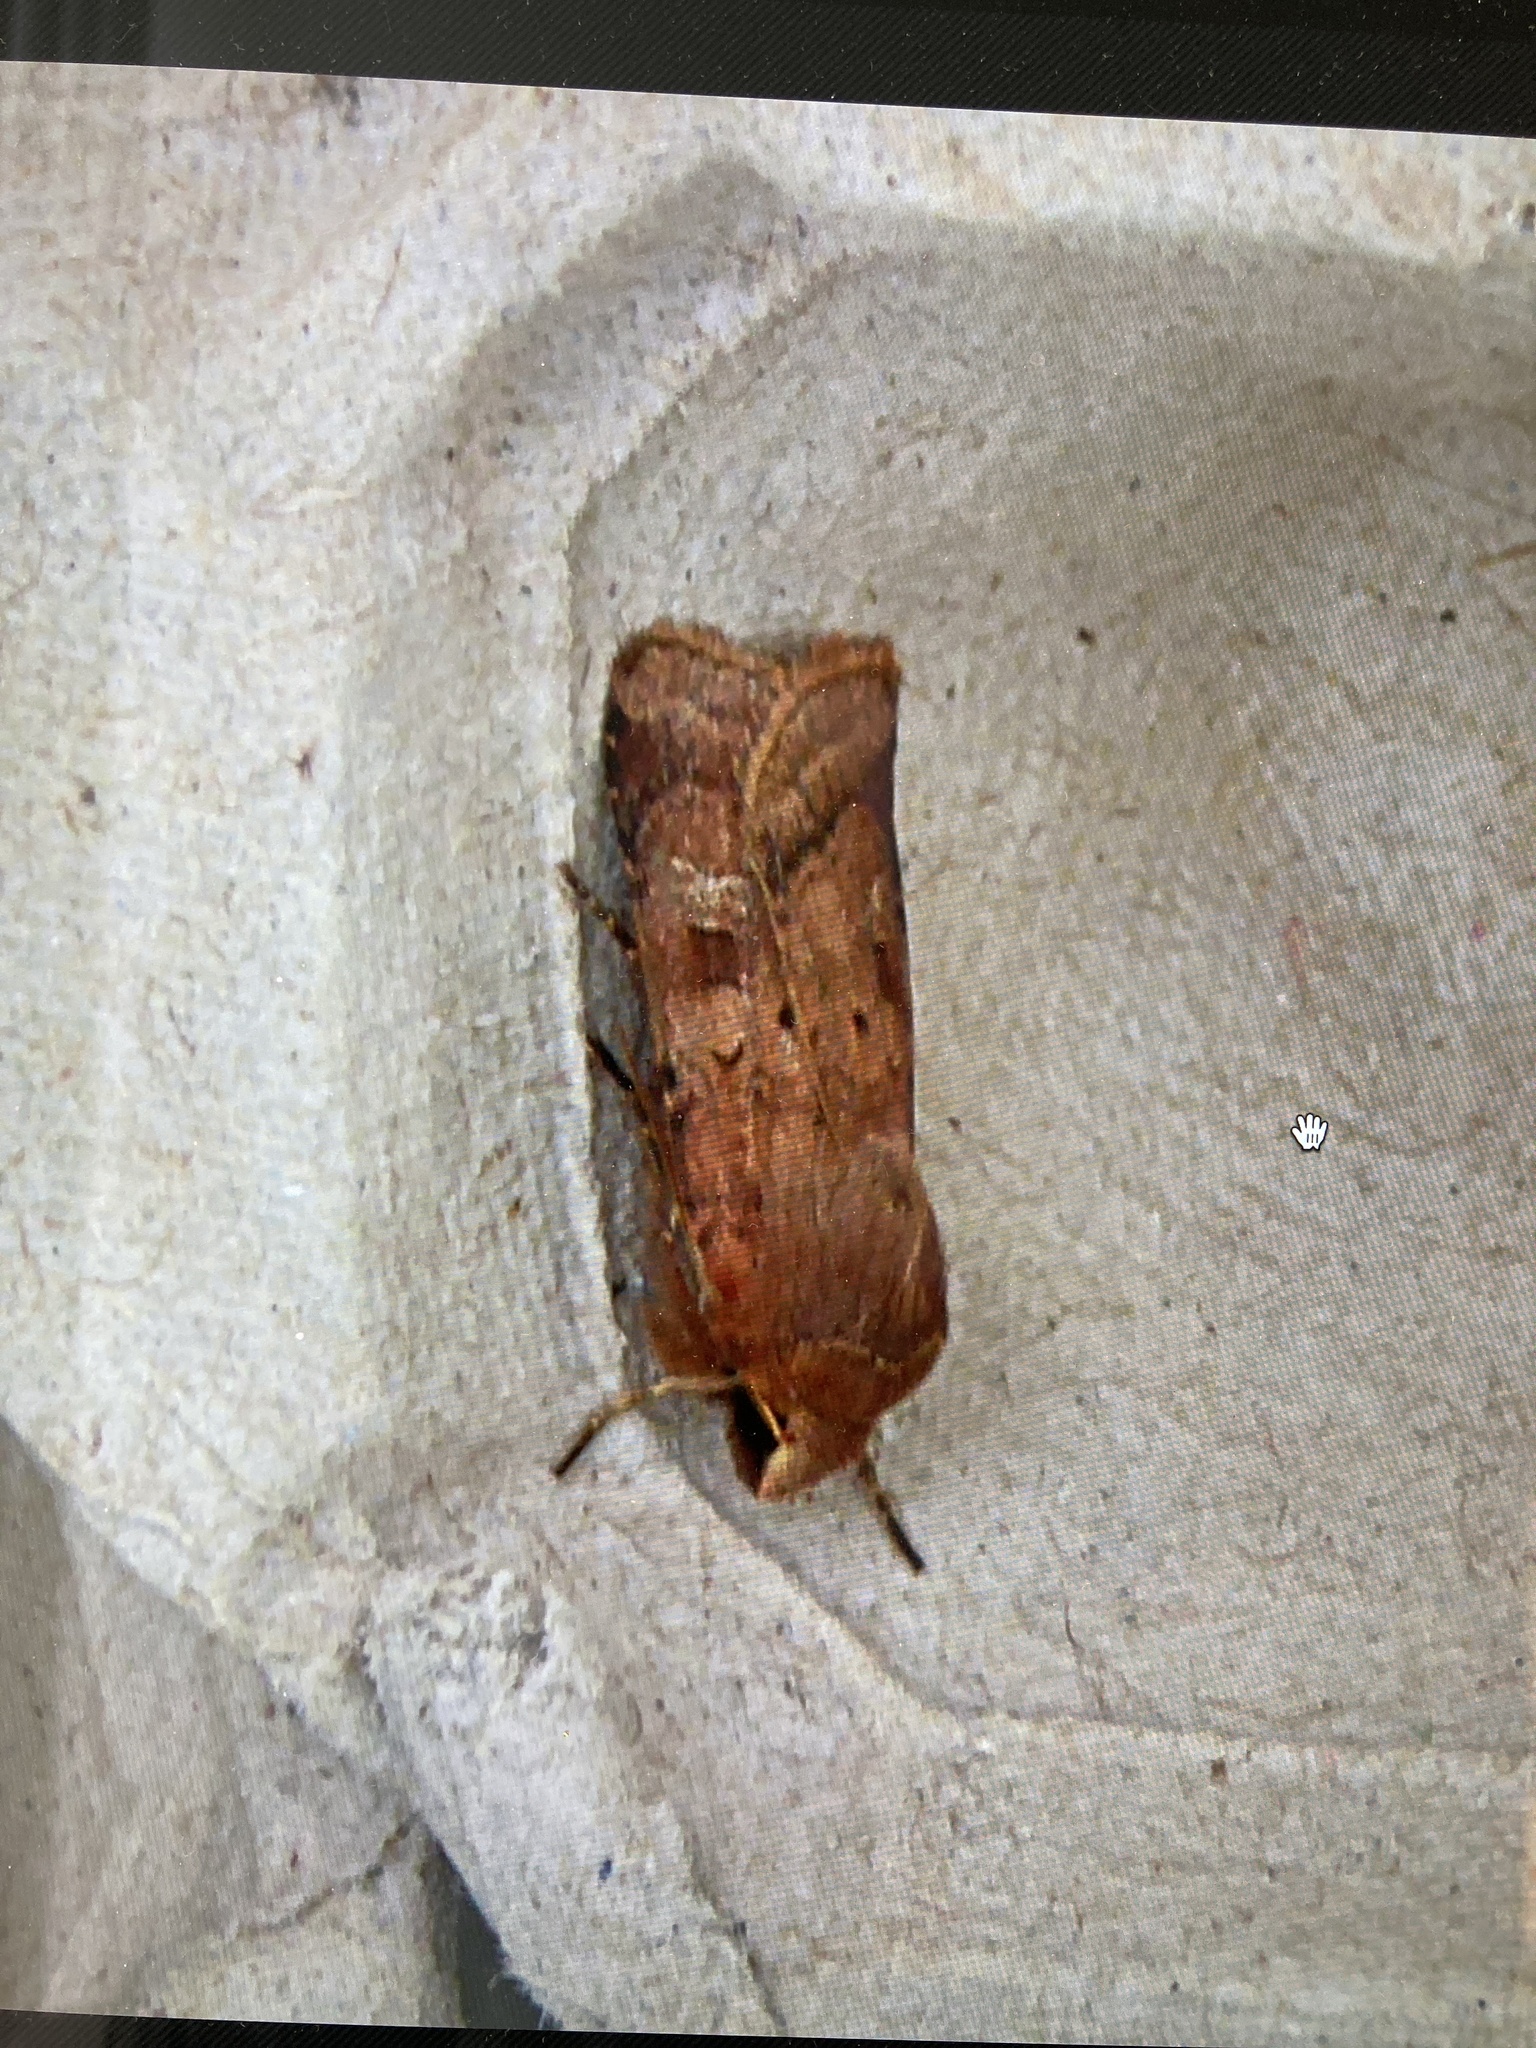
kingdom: Animalia
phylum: Arthropoda
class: Insecta
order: Lepidoptera
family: Noctuidae
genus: Diarsia
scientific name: Diarsia rubi
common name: Small square-spot
